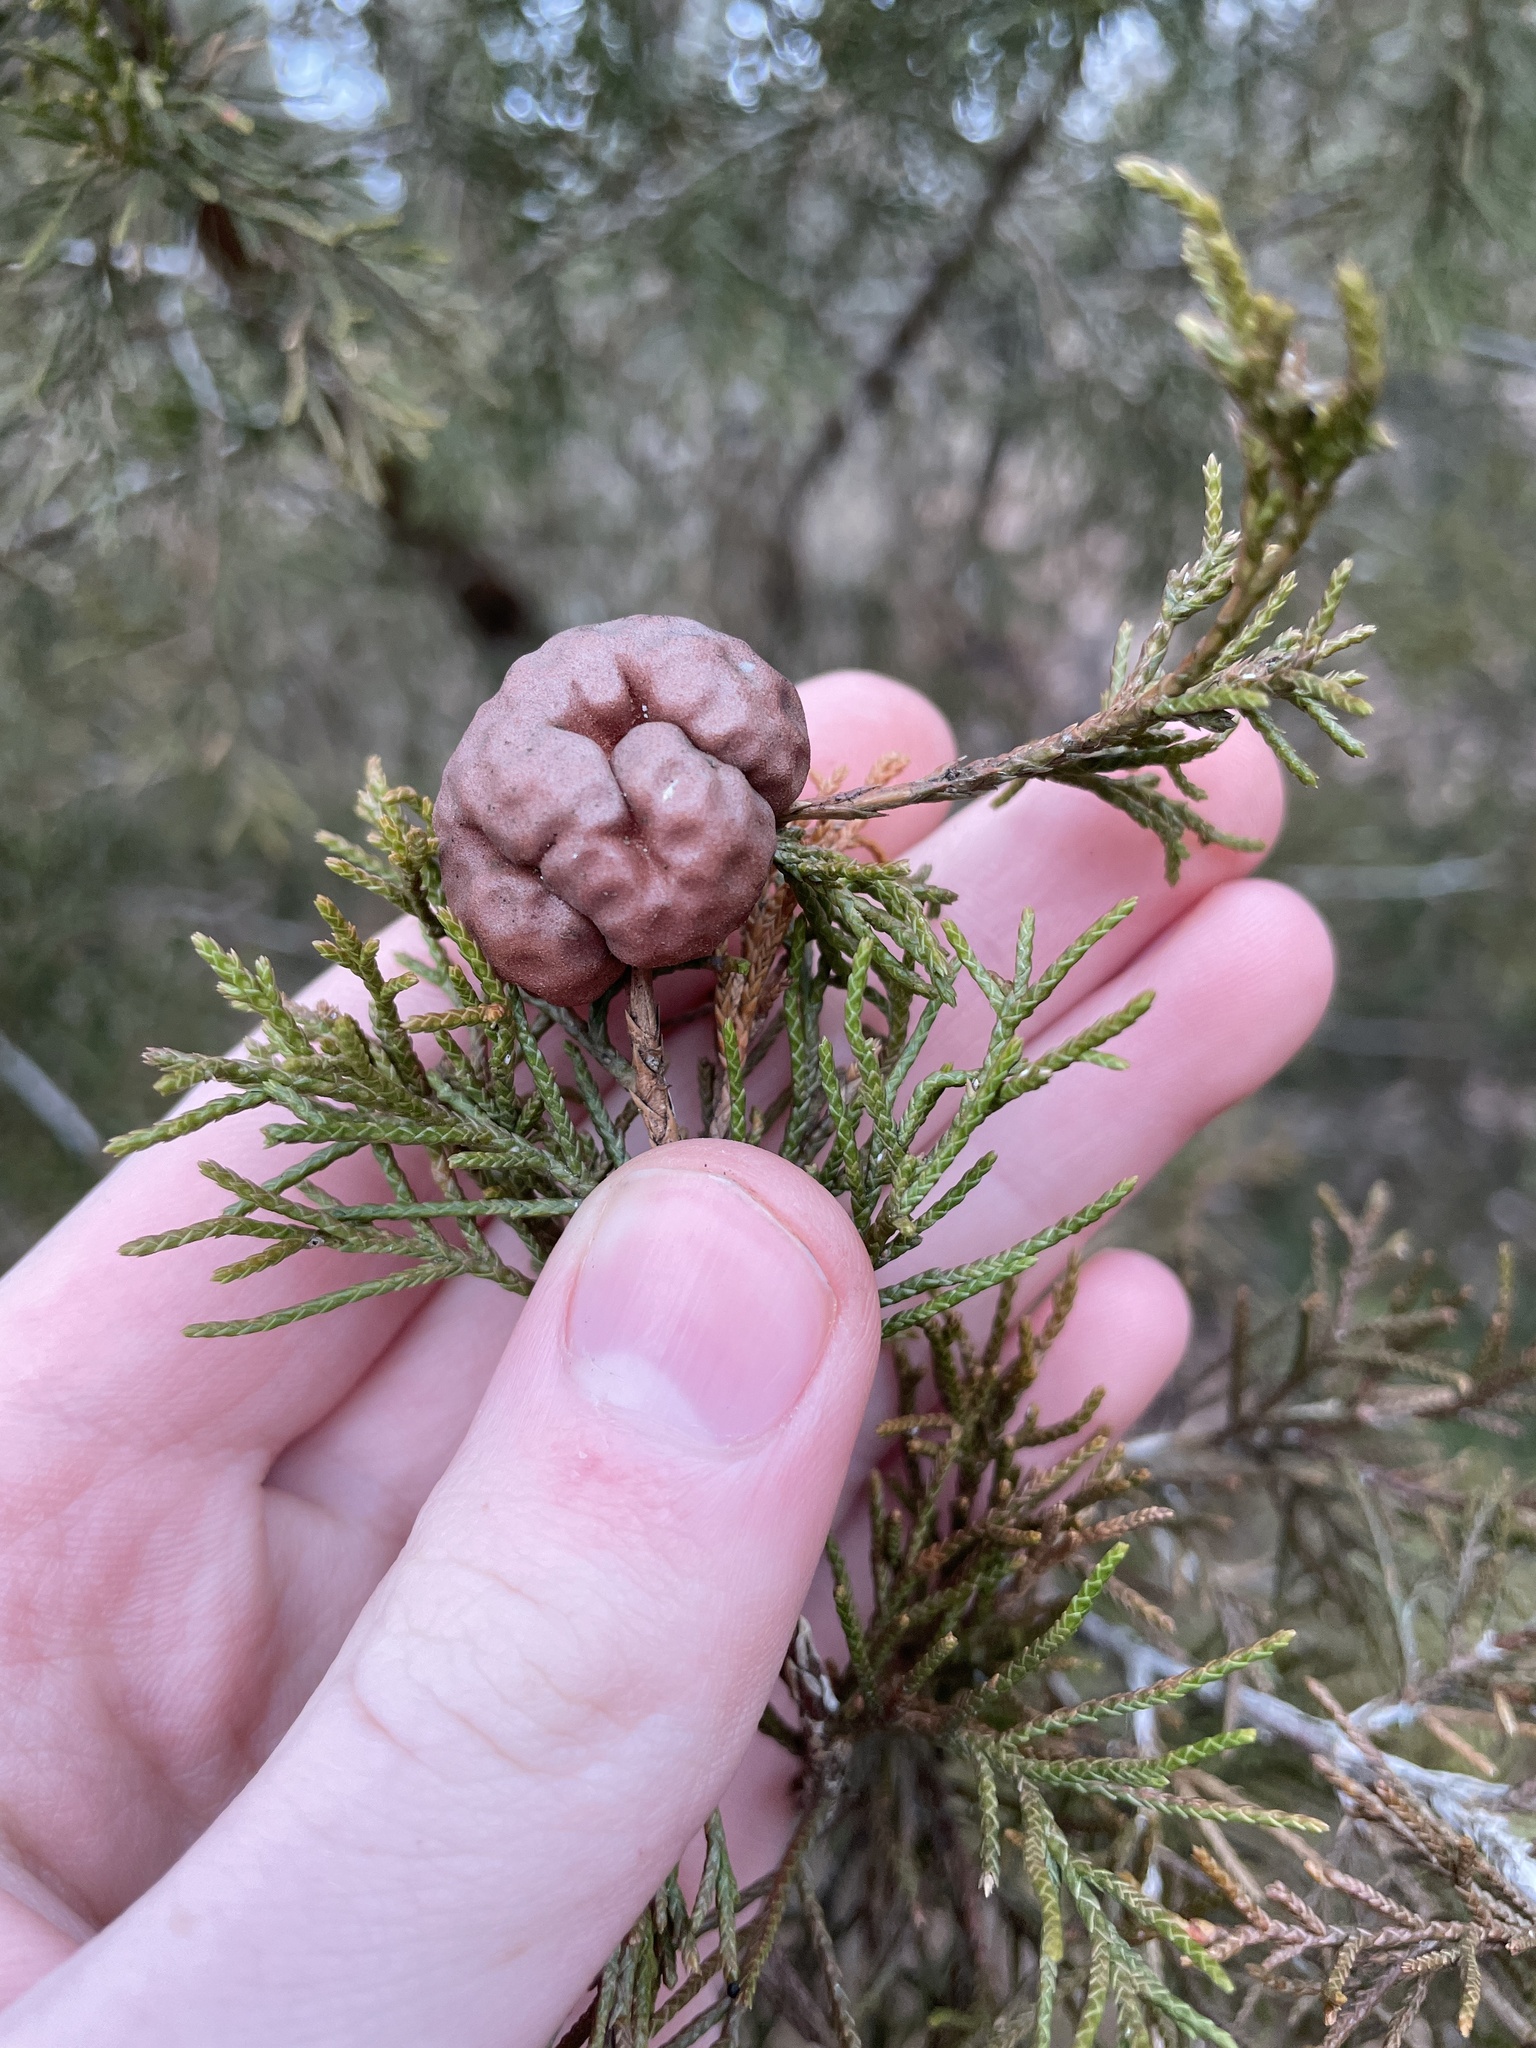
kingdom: Fungi
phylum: Basidiomycota
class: Pucciniomycetes
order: Pucciniales
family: Gymnosporangiaceae
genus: Gymnosporangium
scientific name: Gymnosporangium juniperi-virginianae
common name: Juniper-apple rust
